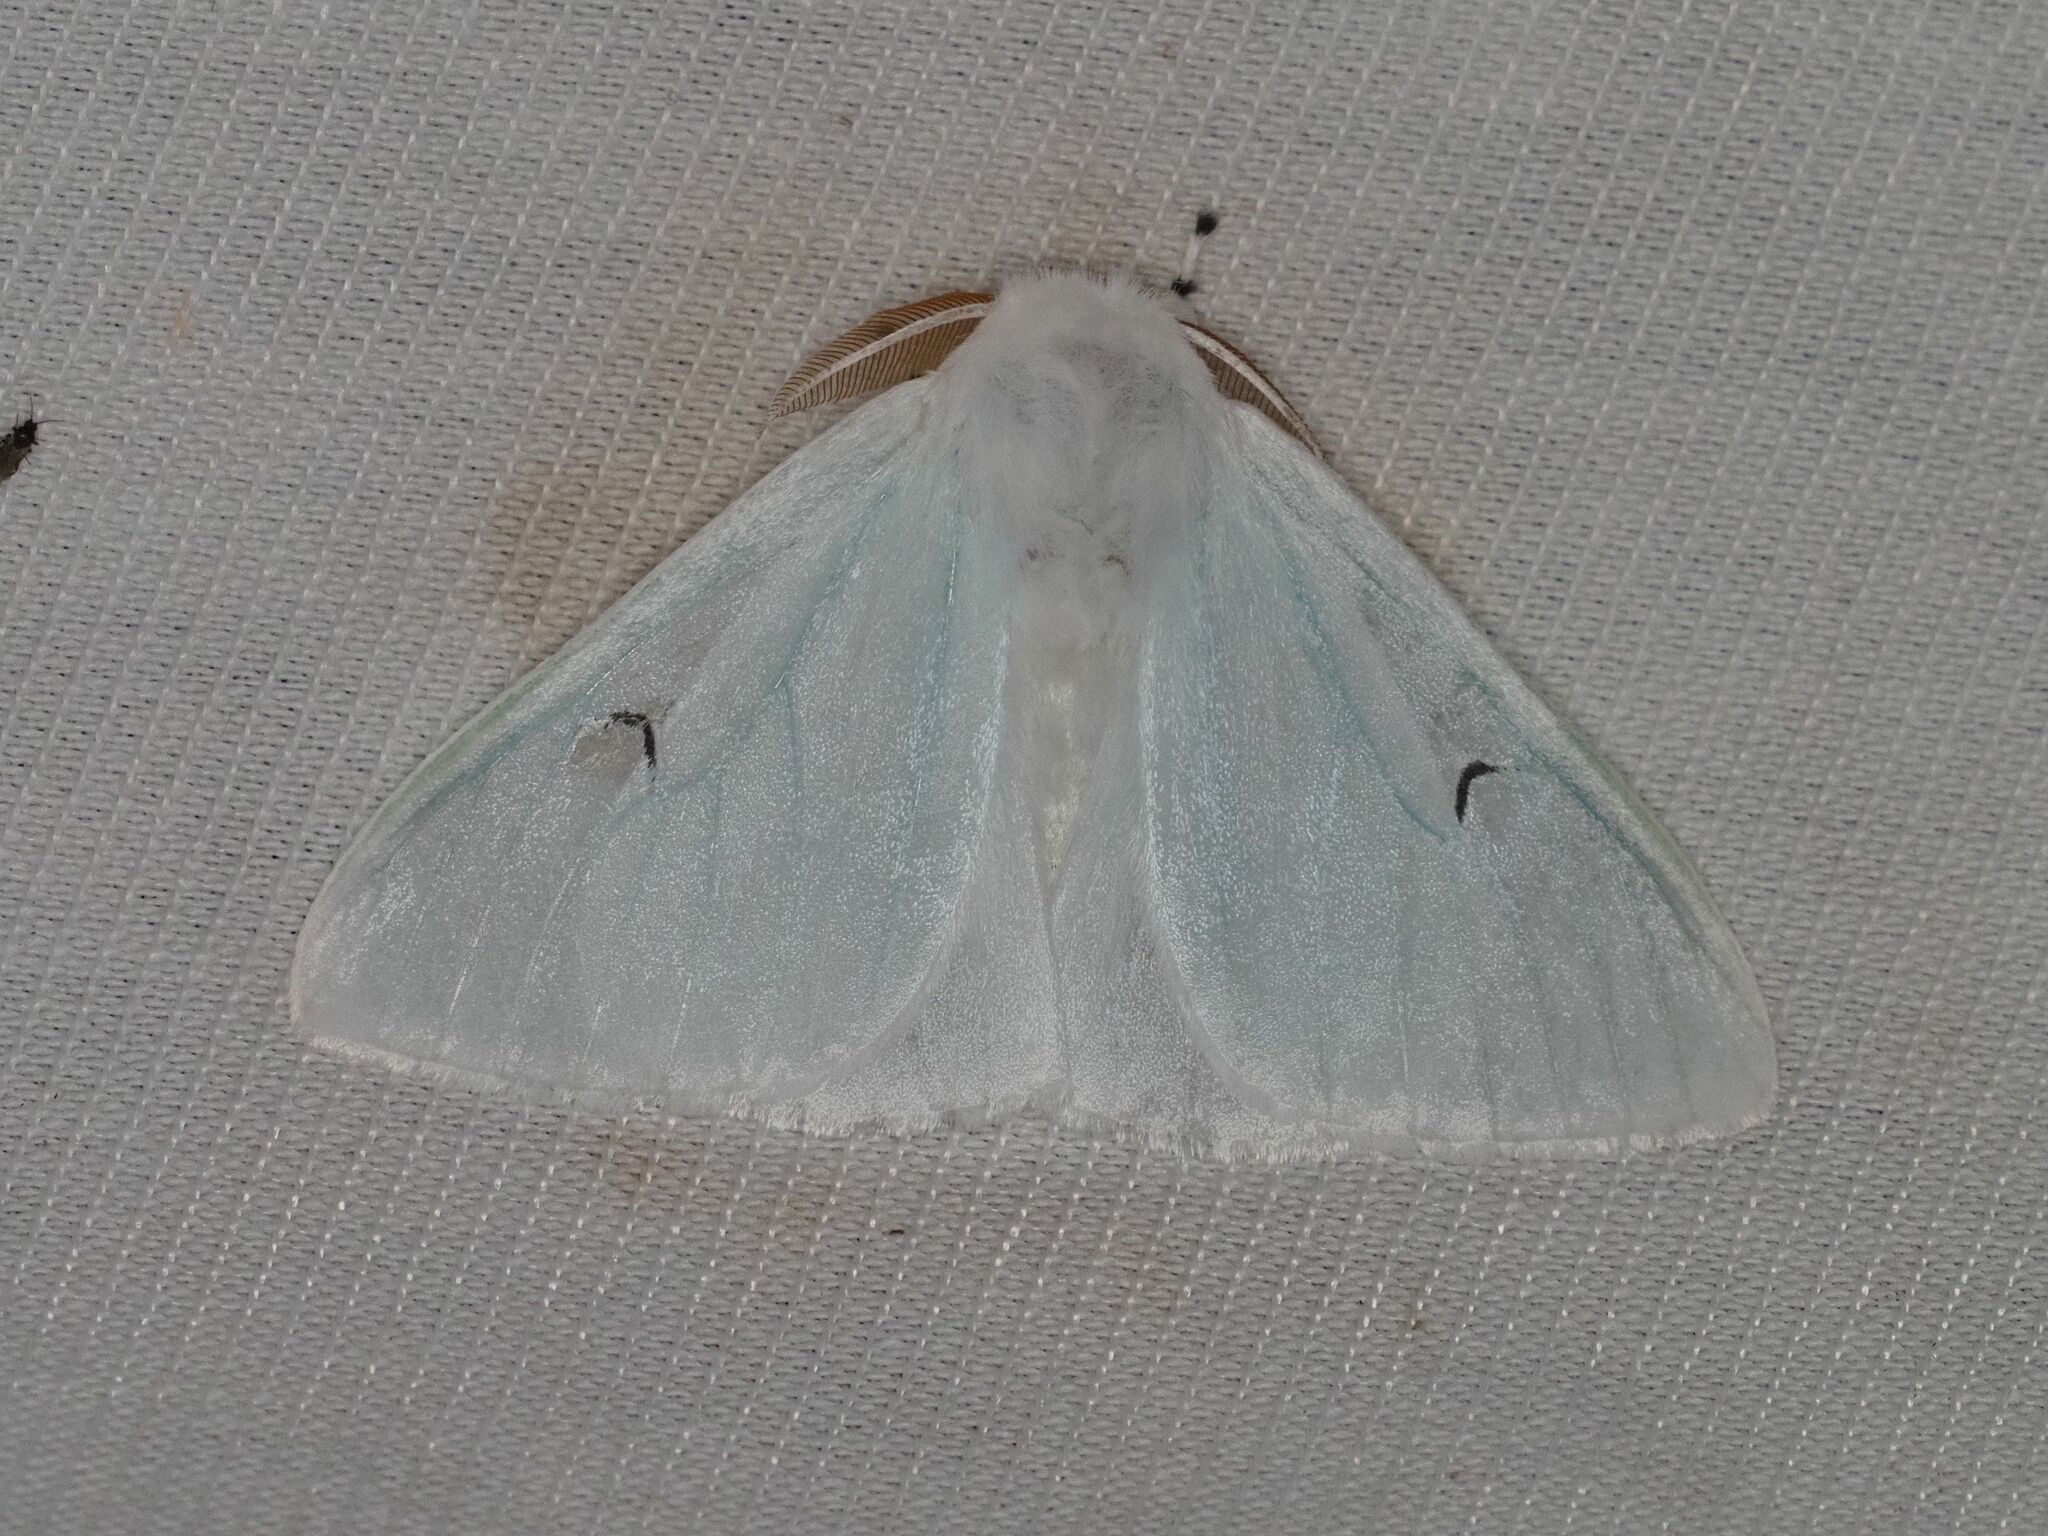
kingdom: Animalia
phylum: Arthropoda
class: Insecta
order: Lepidoptera
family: Erebidae
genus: Arctornis
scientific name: Arctornis l-nigrum
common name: Black v moth
